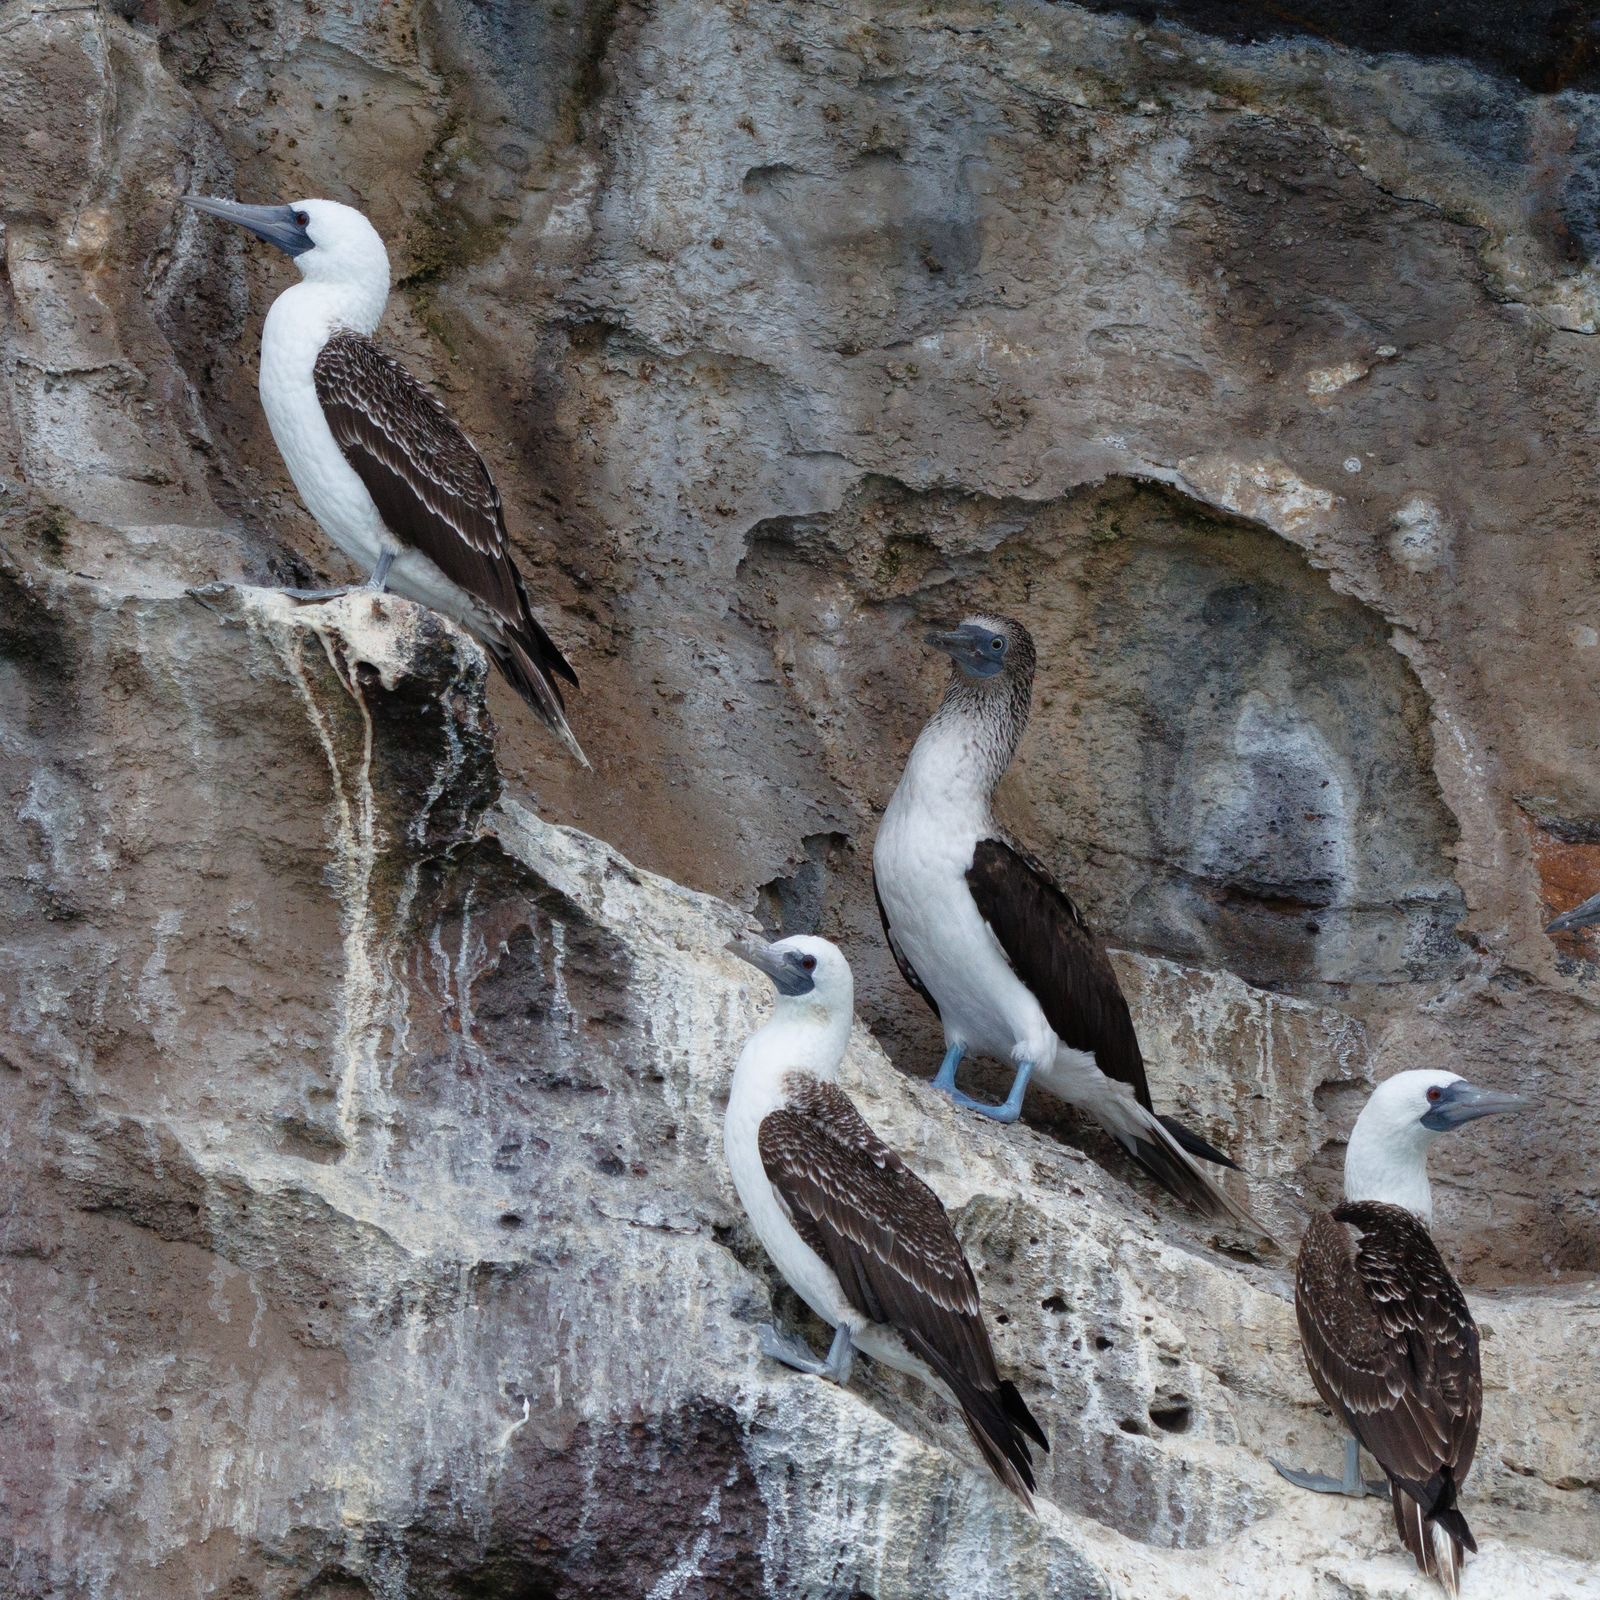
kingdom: Animalia
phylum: Chordata
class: Aves
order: Suliformes
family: Sulidae
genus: Sula
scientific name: Sula variegata
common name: Peruvian booby
